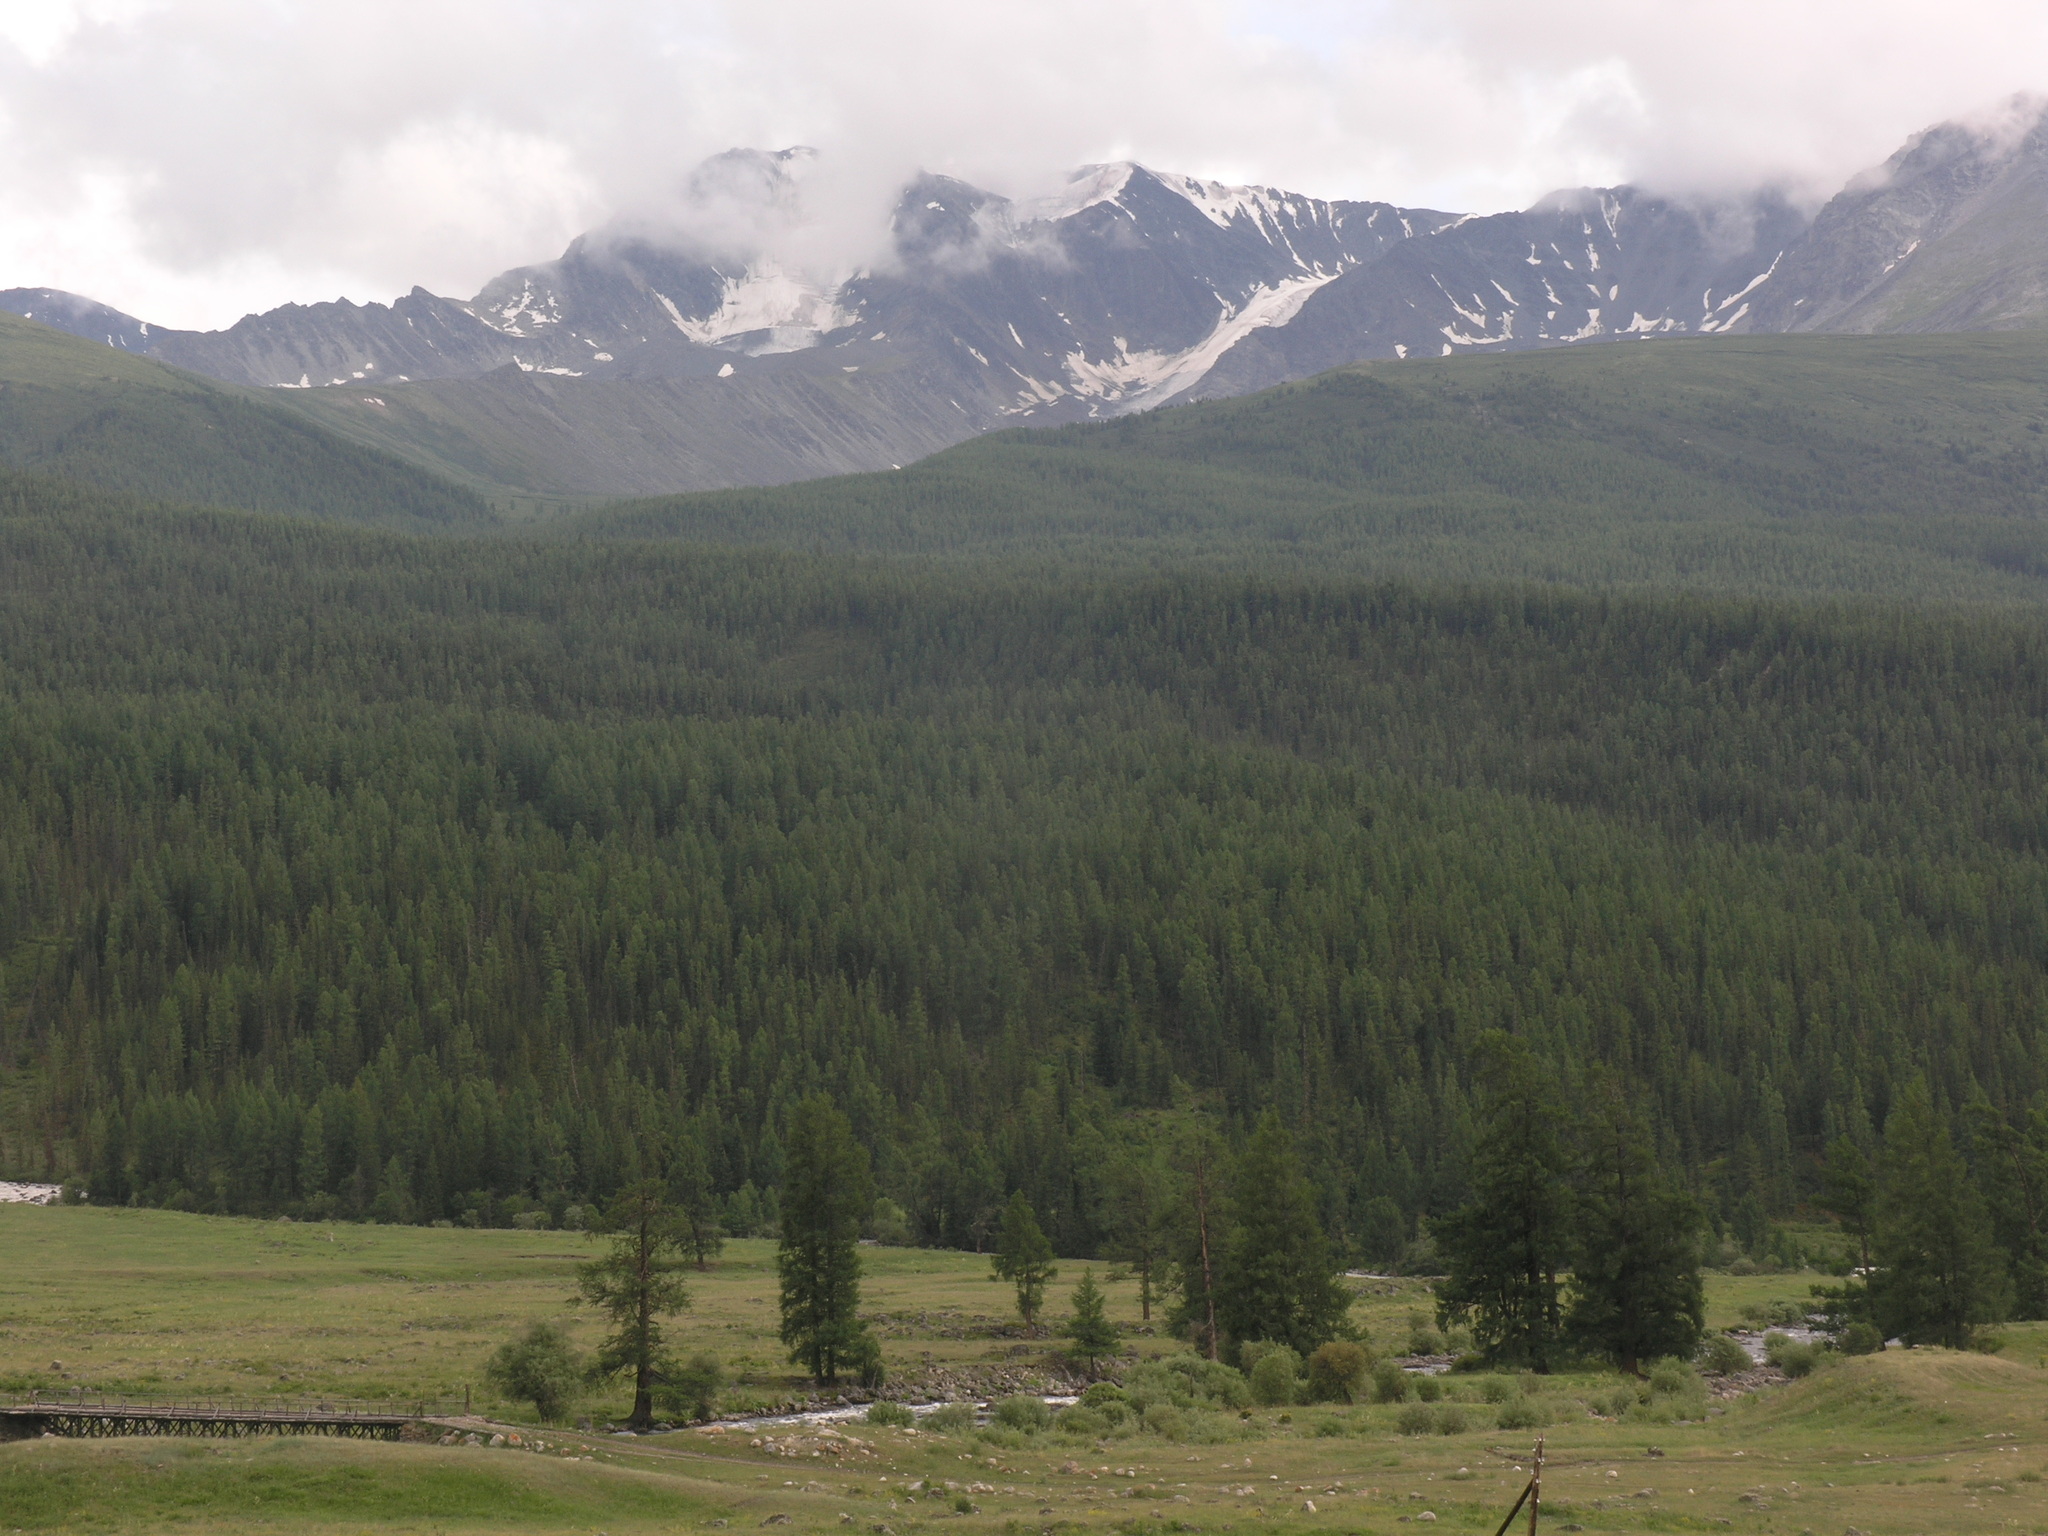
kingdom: Plantae
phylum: Tracheophyta
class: Pinopsida
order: Pinales
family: Pinaceae
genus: Larix
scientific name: Larix sibirica
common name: Siberian larch
